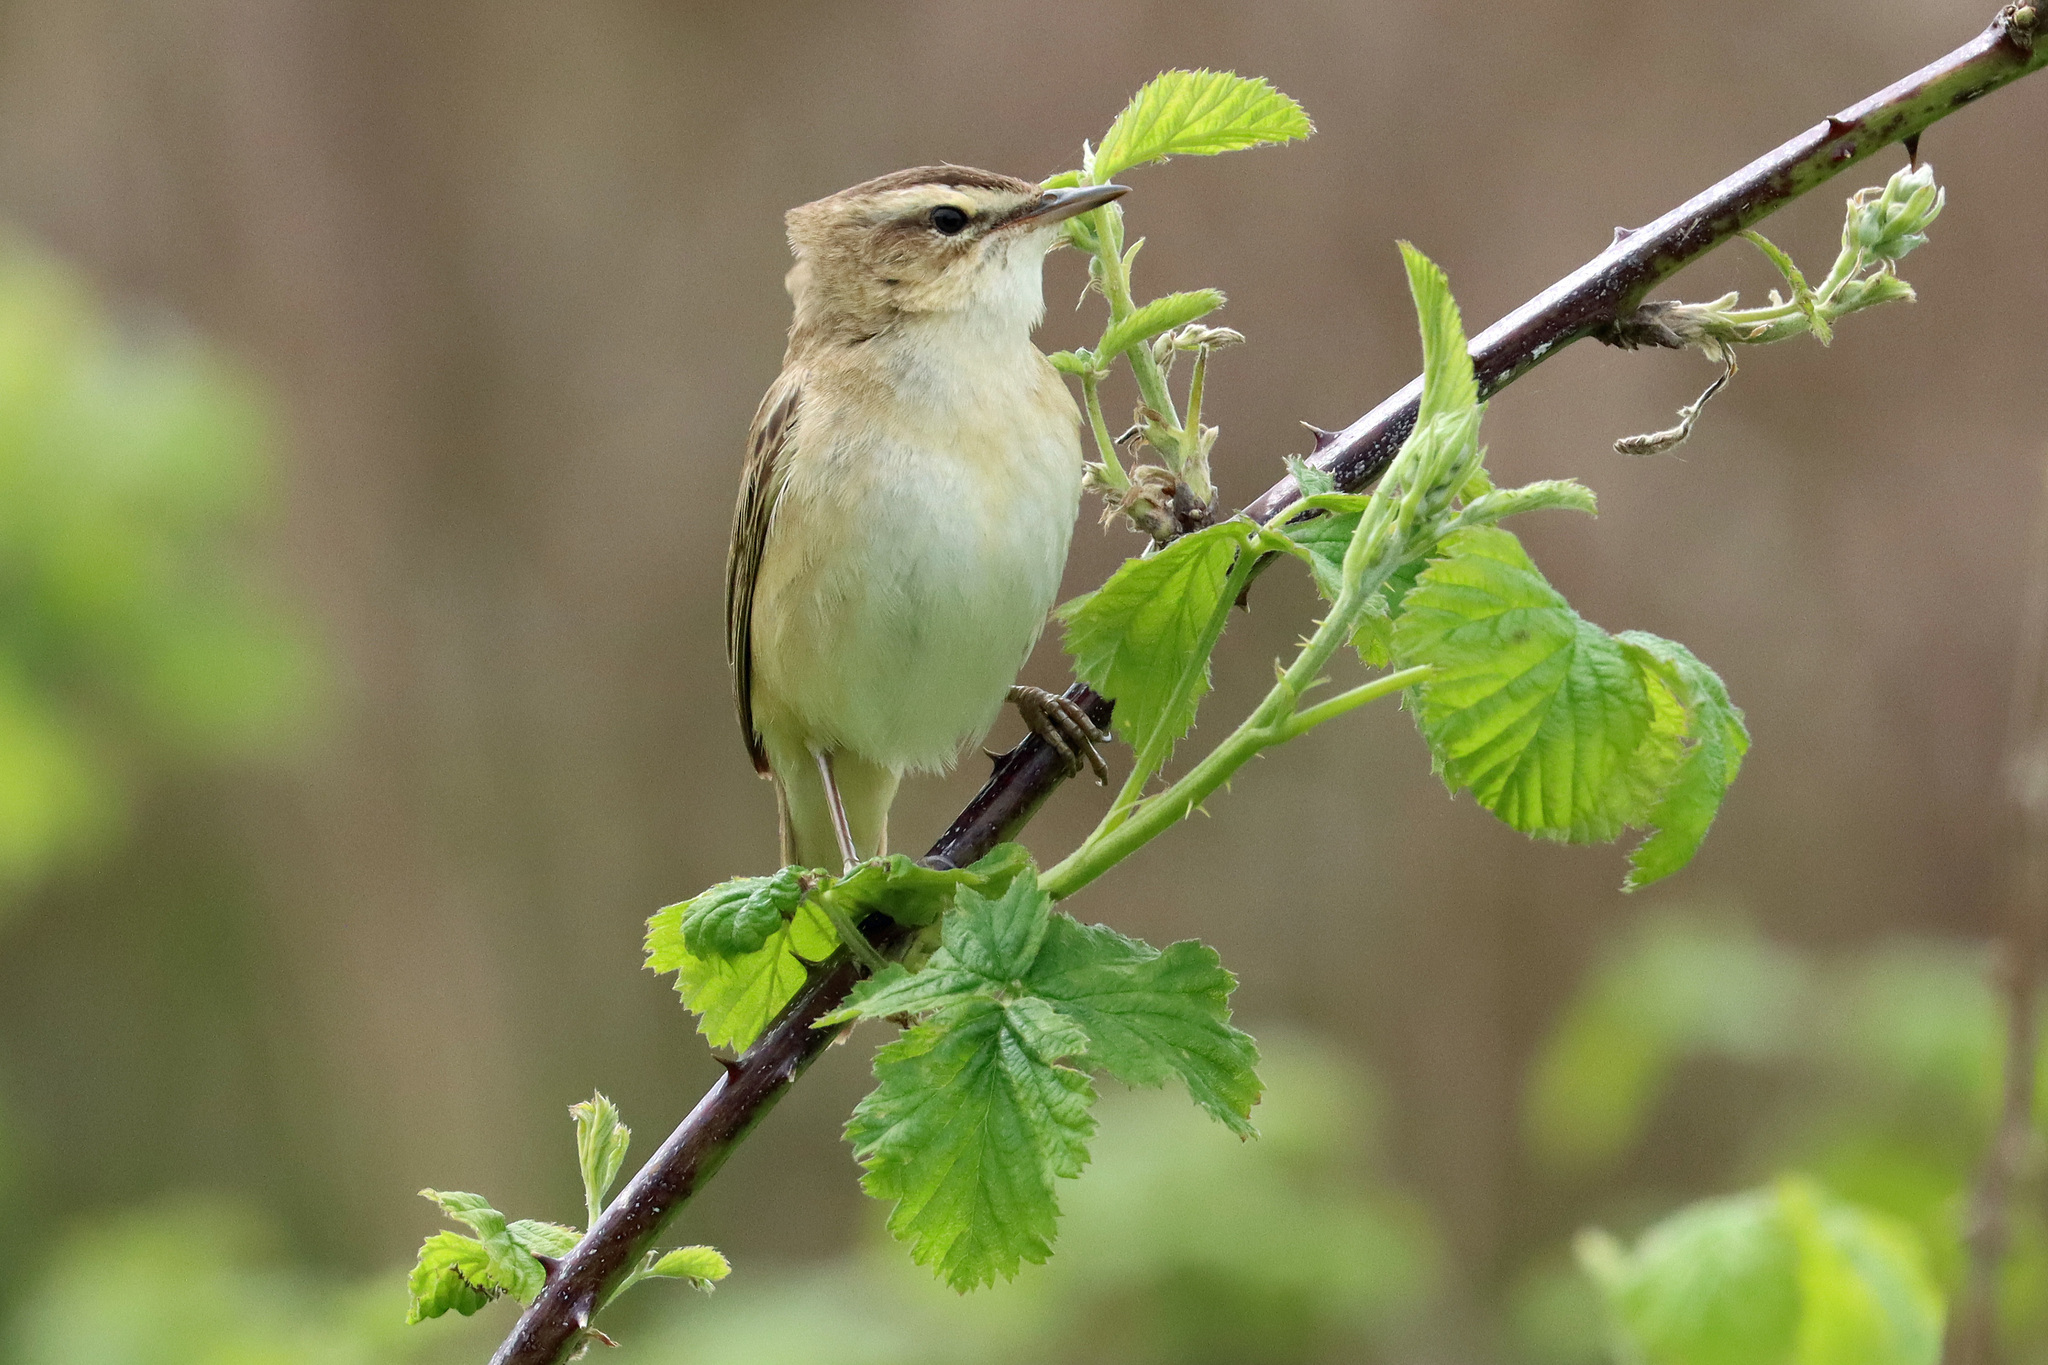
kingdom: Animalia
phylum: Chordata
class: Aves
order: Passeriformes
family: Acrocephalidae
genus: Acrocephalus
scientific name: Acrocephalus schoenobaenus
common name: Sedge warbler
